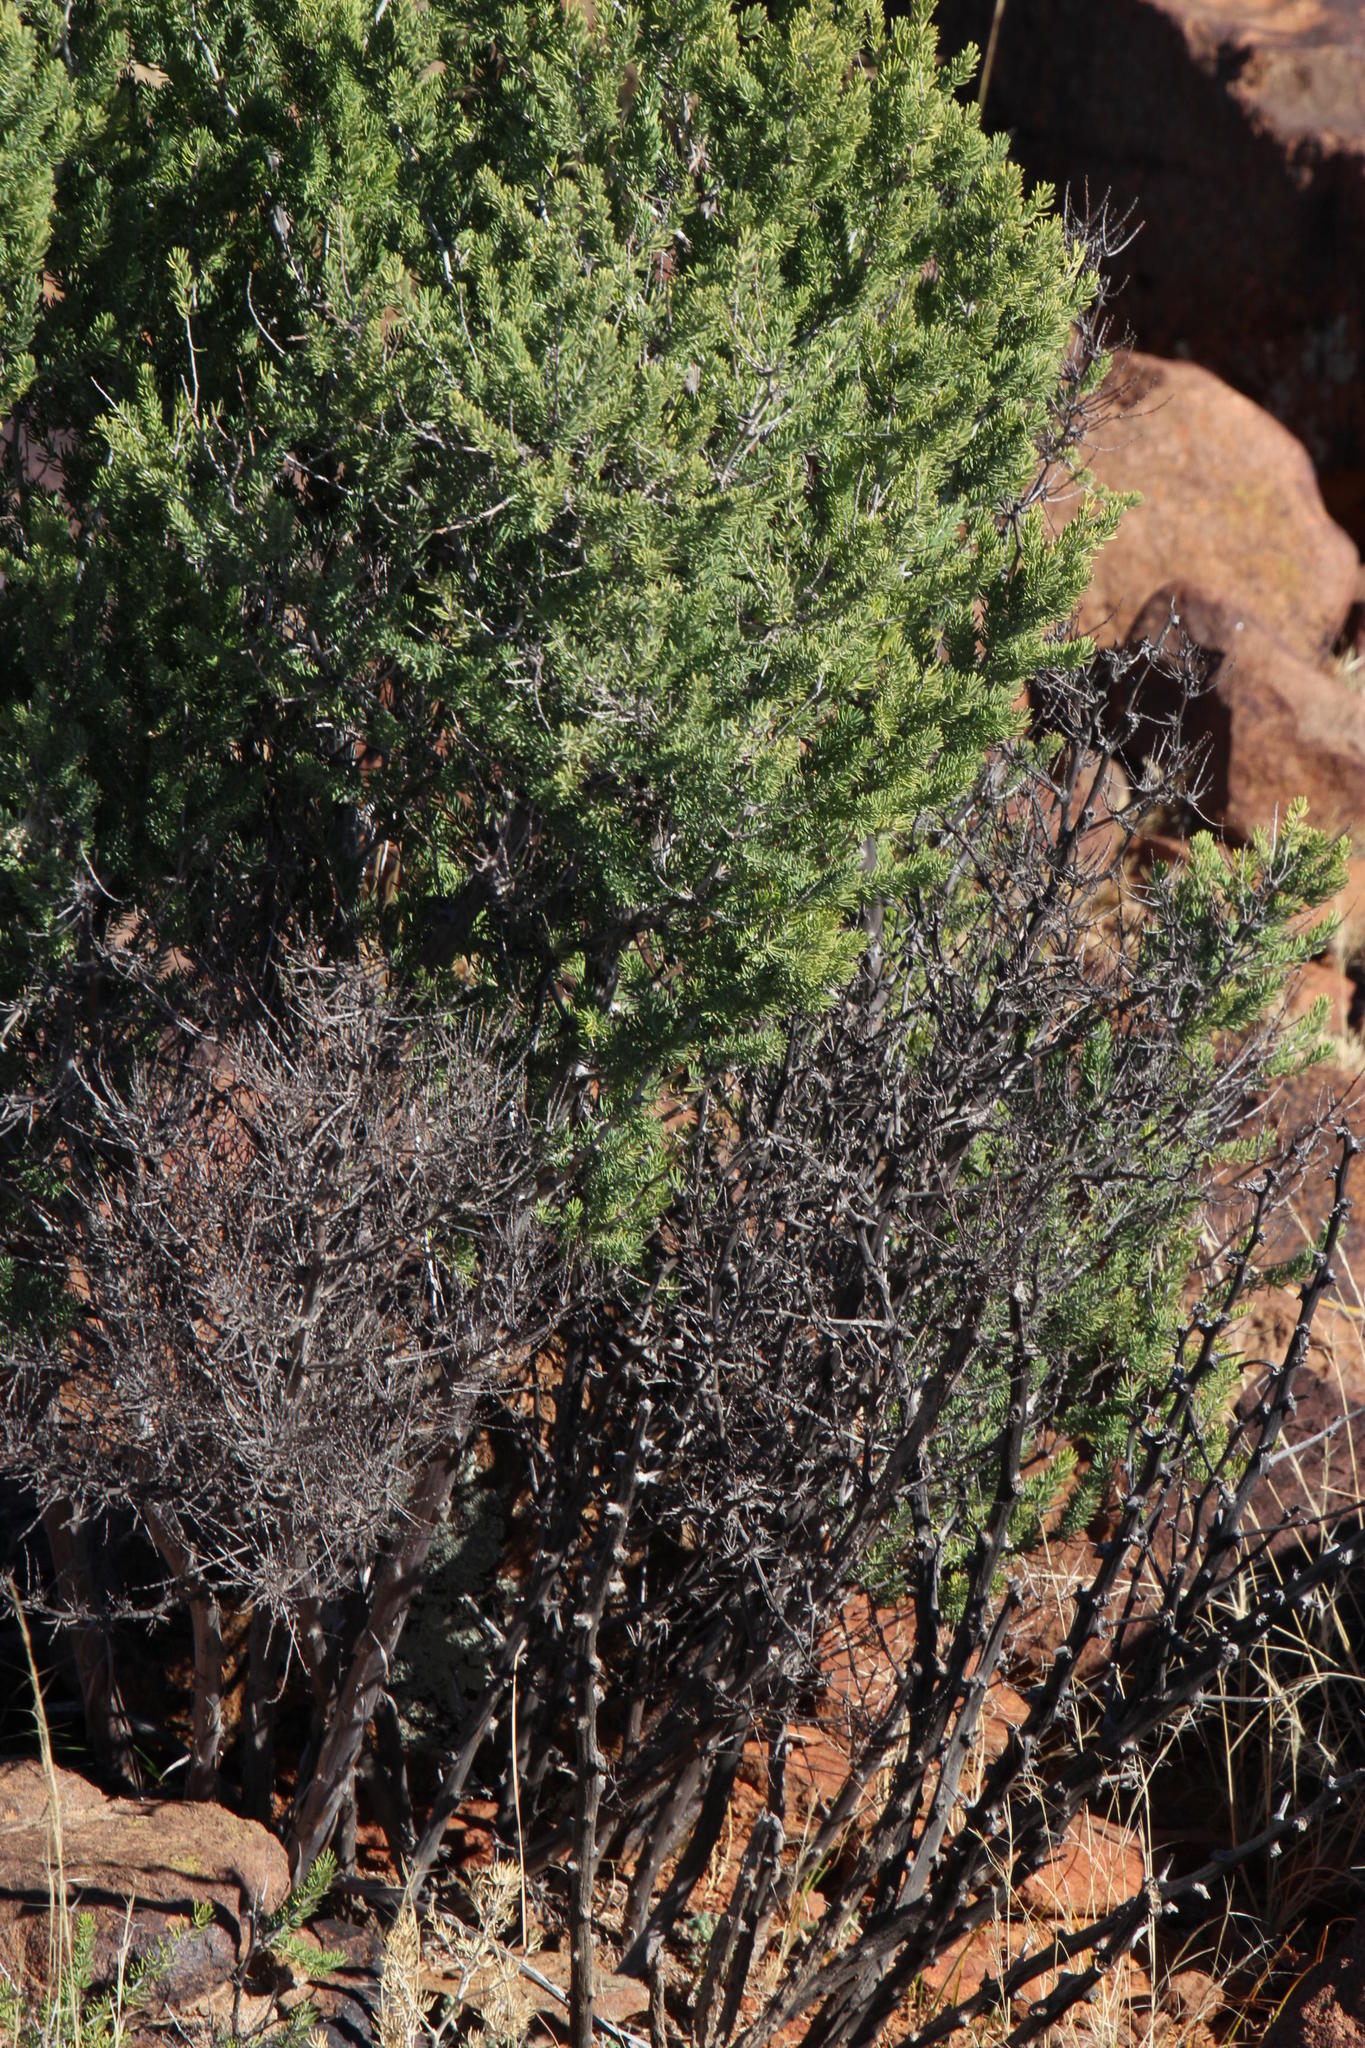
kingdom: Plantae
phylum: Tracheophyta
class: Liliopsida
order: Asparagales
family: Asparagaceae
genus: Asparagus
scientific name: Asparagus mucronatus
